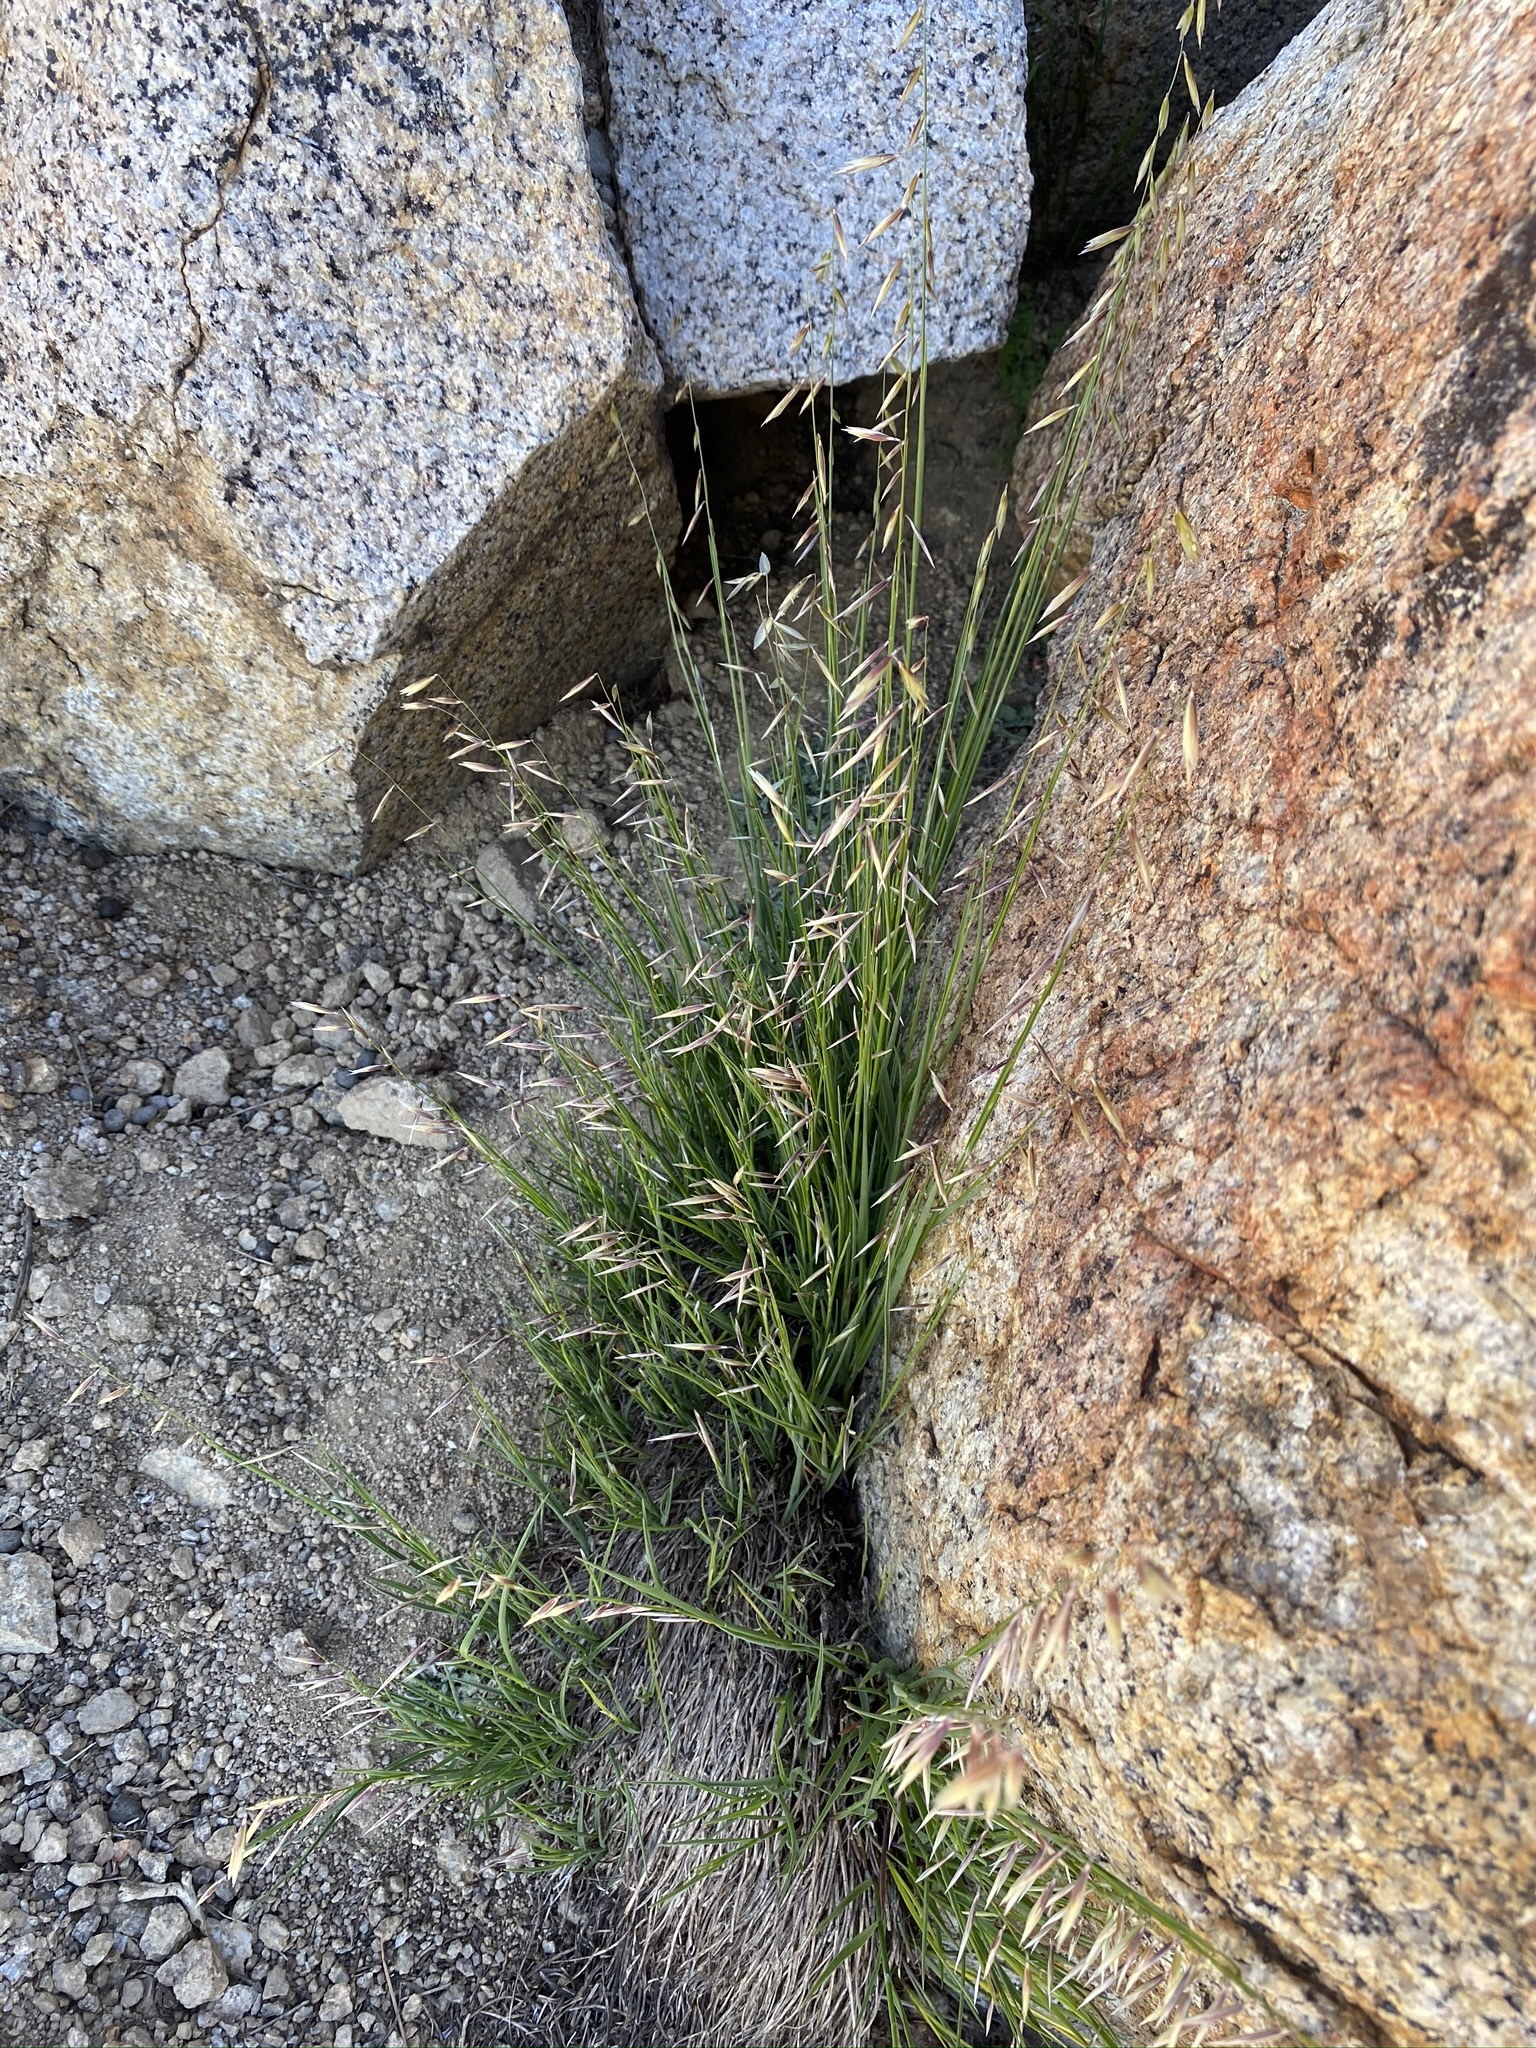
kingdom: Plantae
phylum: Tracheophyta
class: Liliopsida
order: Poales
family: Poaceae
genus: Melica
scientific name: Melica stricta
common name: Rock melic
